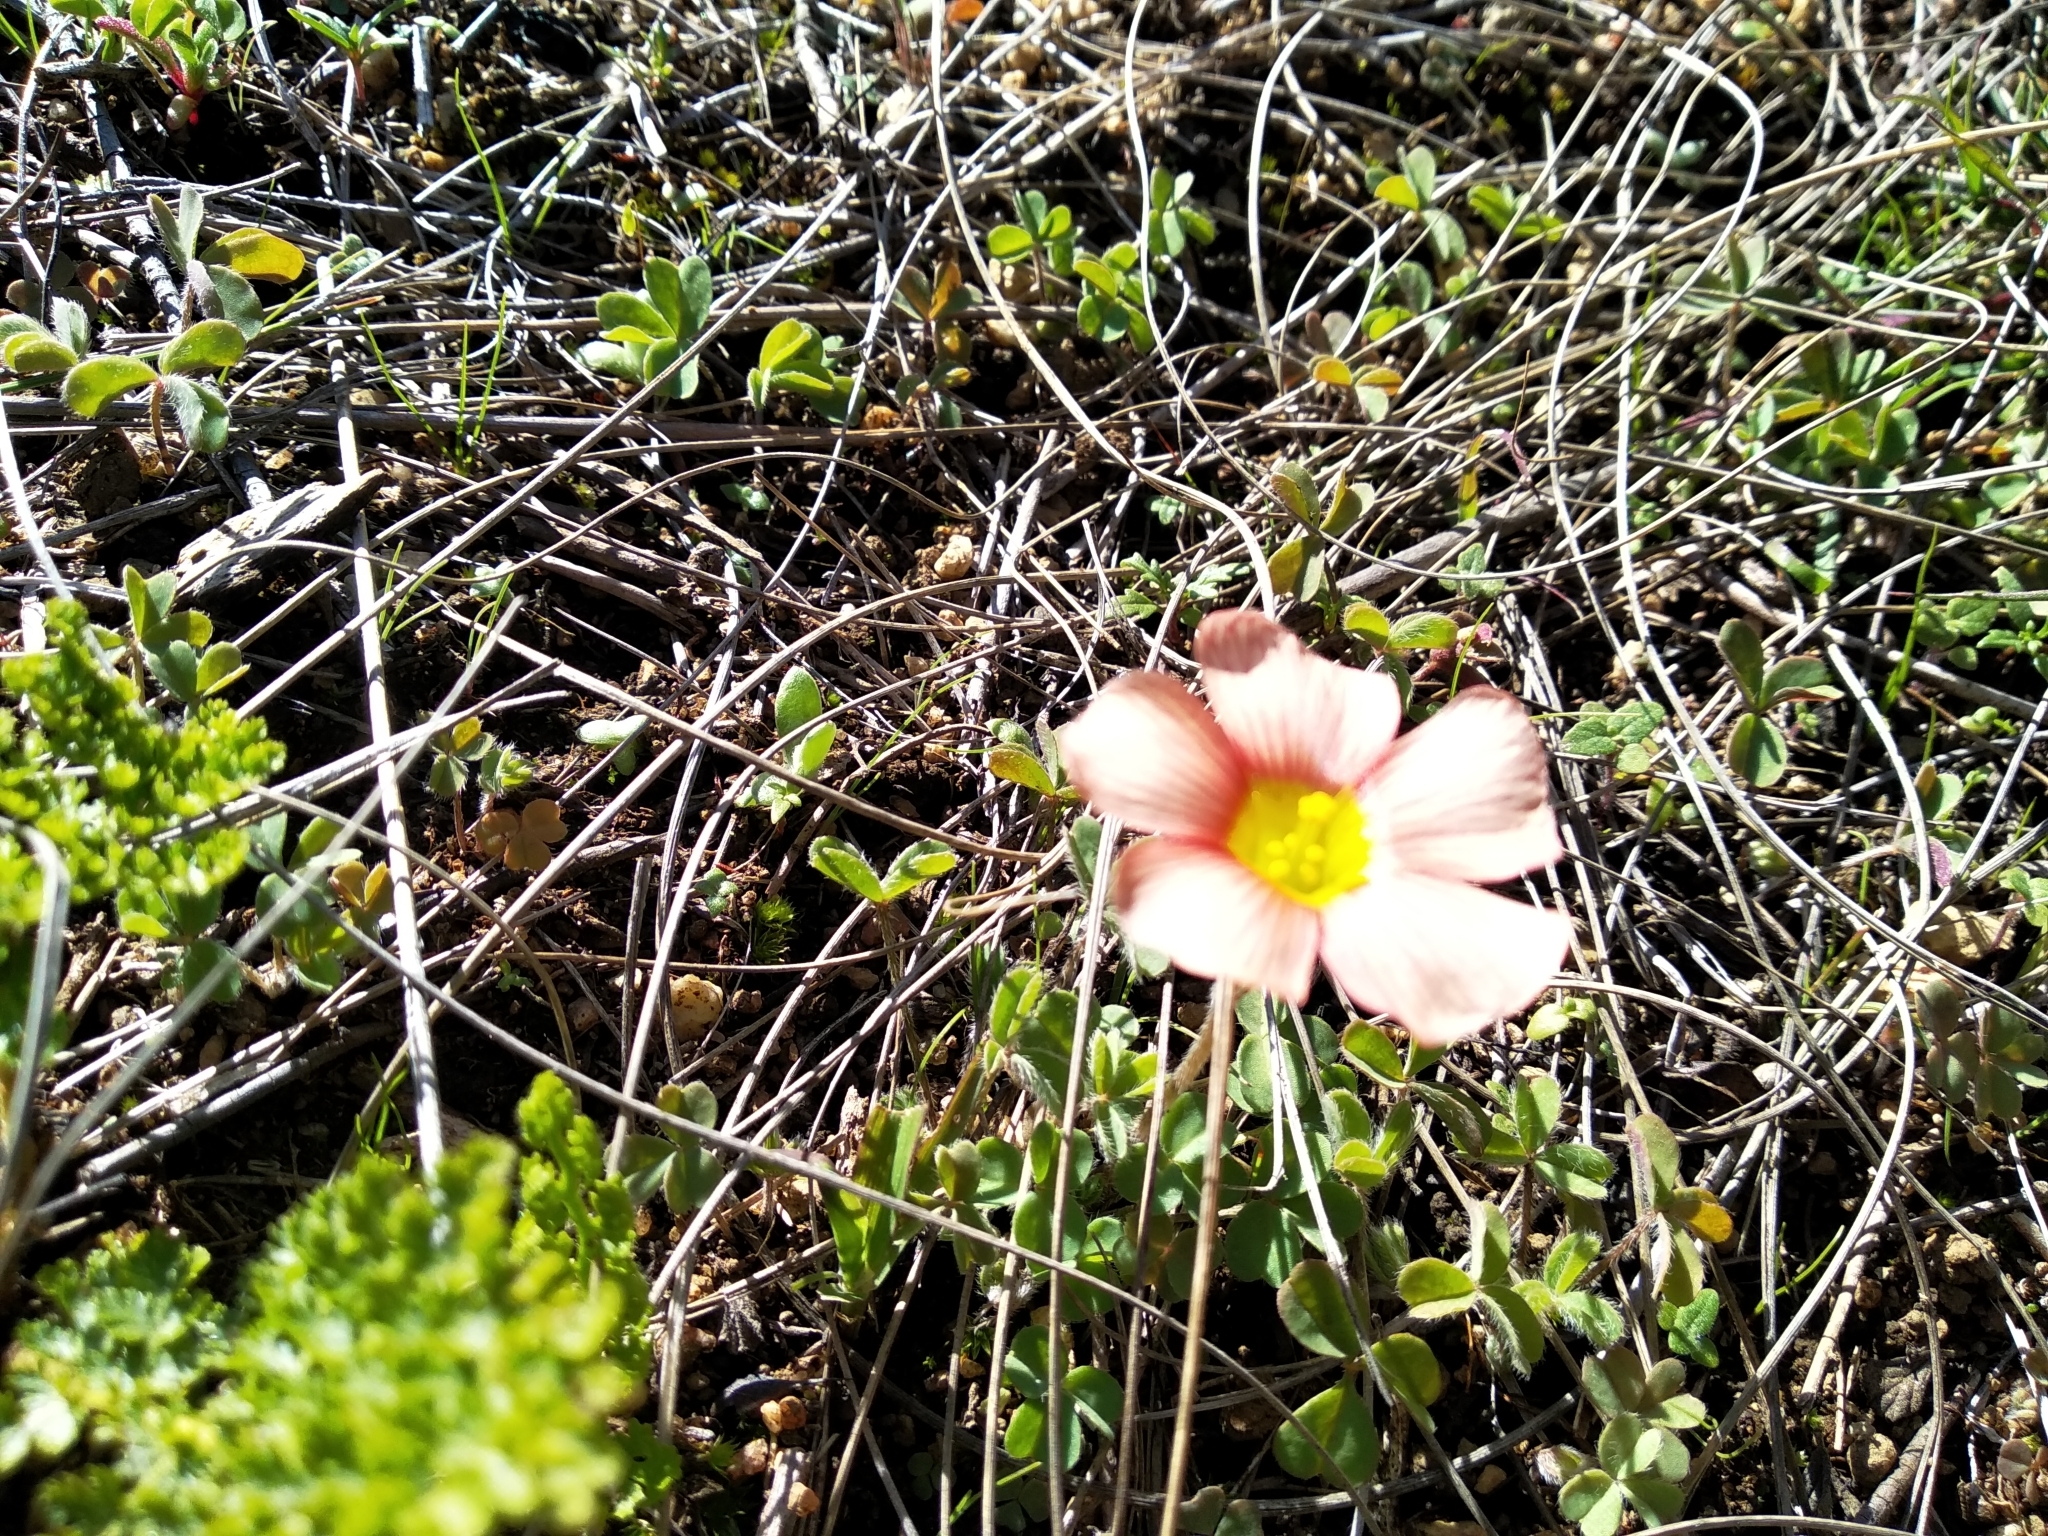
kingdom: Plantae
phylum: Tracheophyta
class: Magnoliopsida
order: Oxalidales
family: Oxalidaceae
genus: Oxalis
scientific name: Oxalis obtusa
